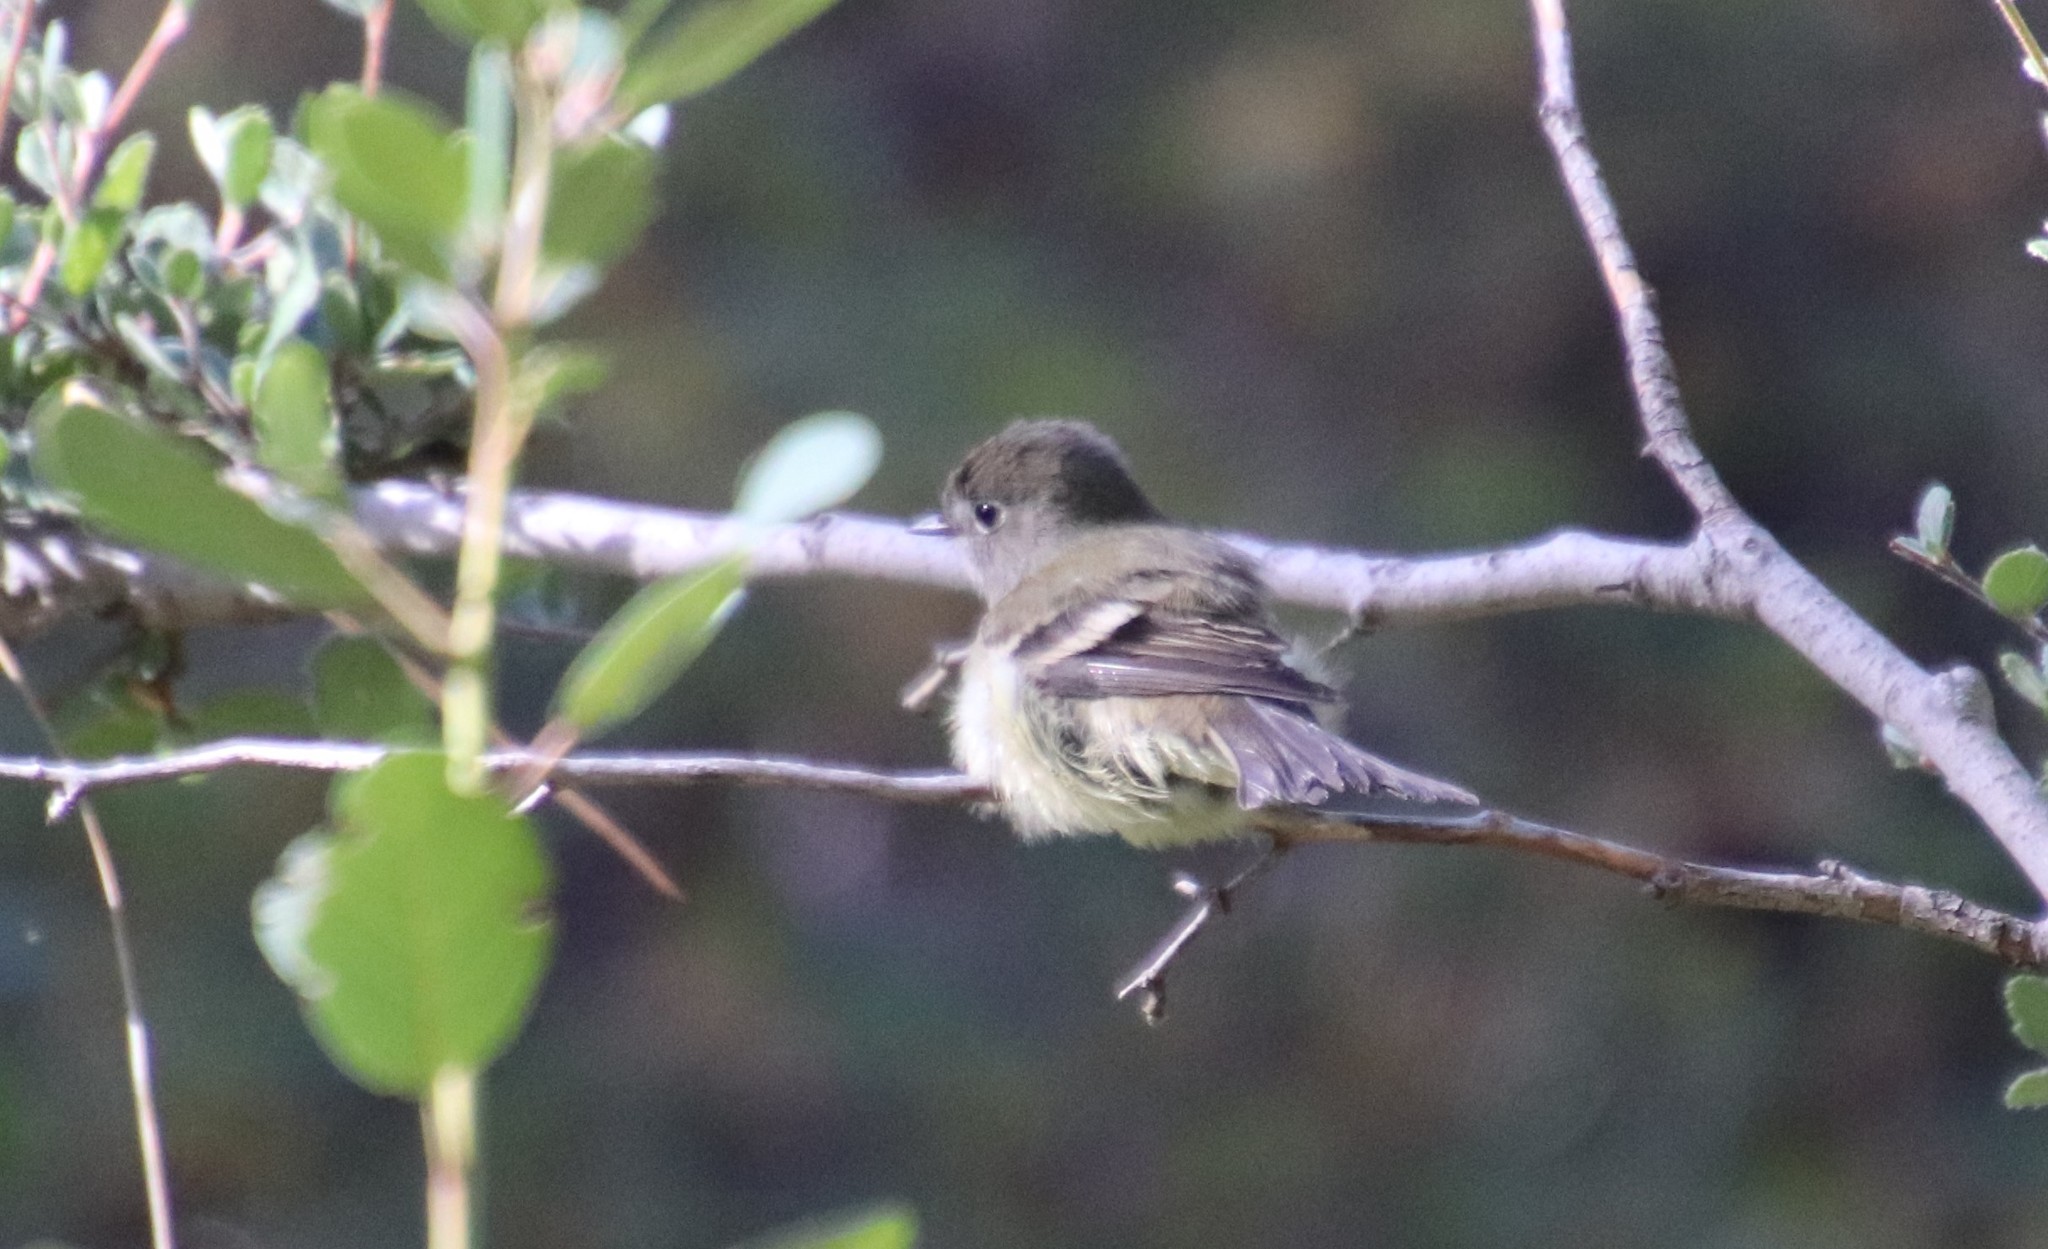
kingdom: Animalia
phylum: Chordata
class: Aves
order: Passeriformes
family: Tyrannidae
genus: Empidonax
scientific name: Empidonax hammondii
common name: Hammond's flycatcher
